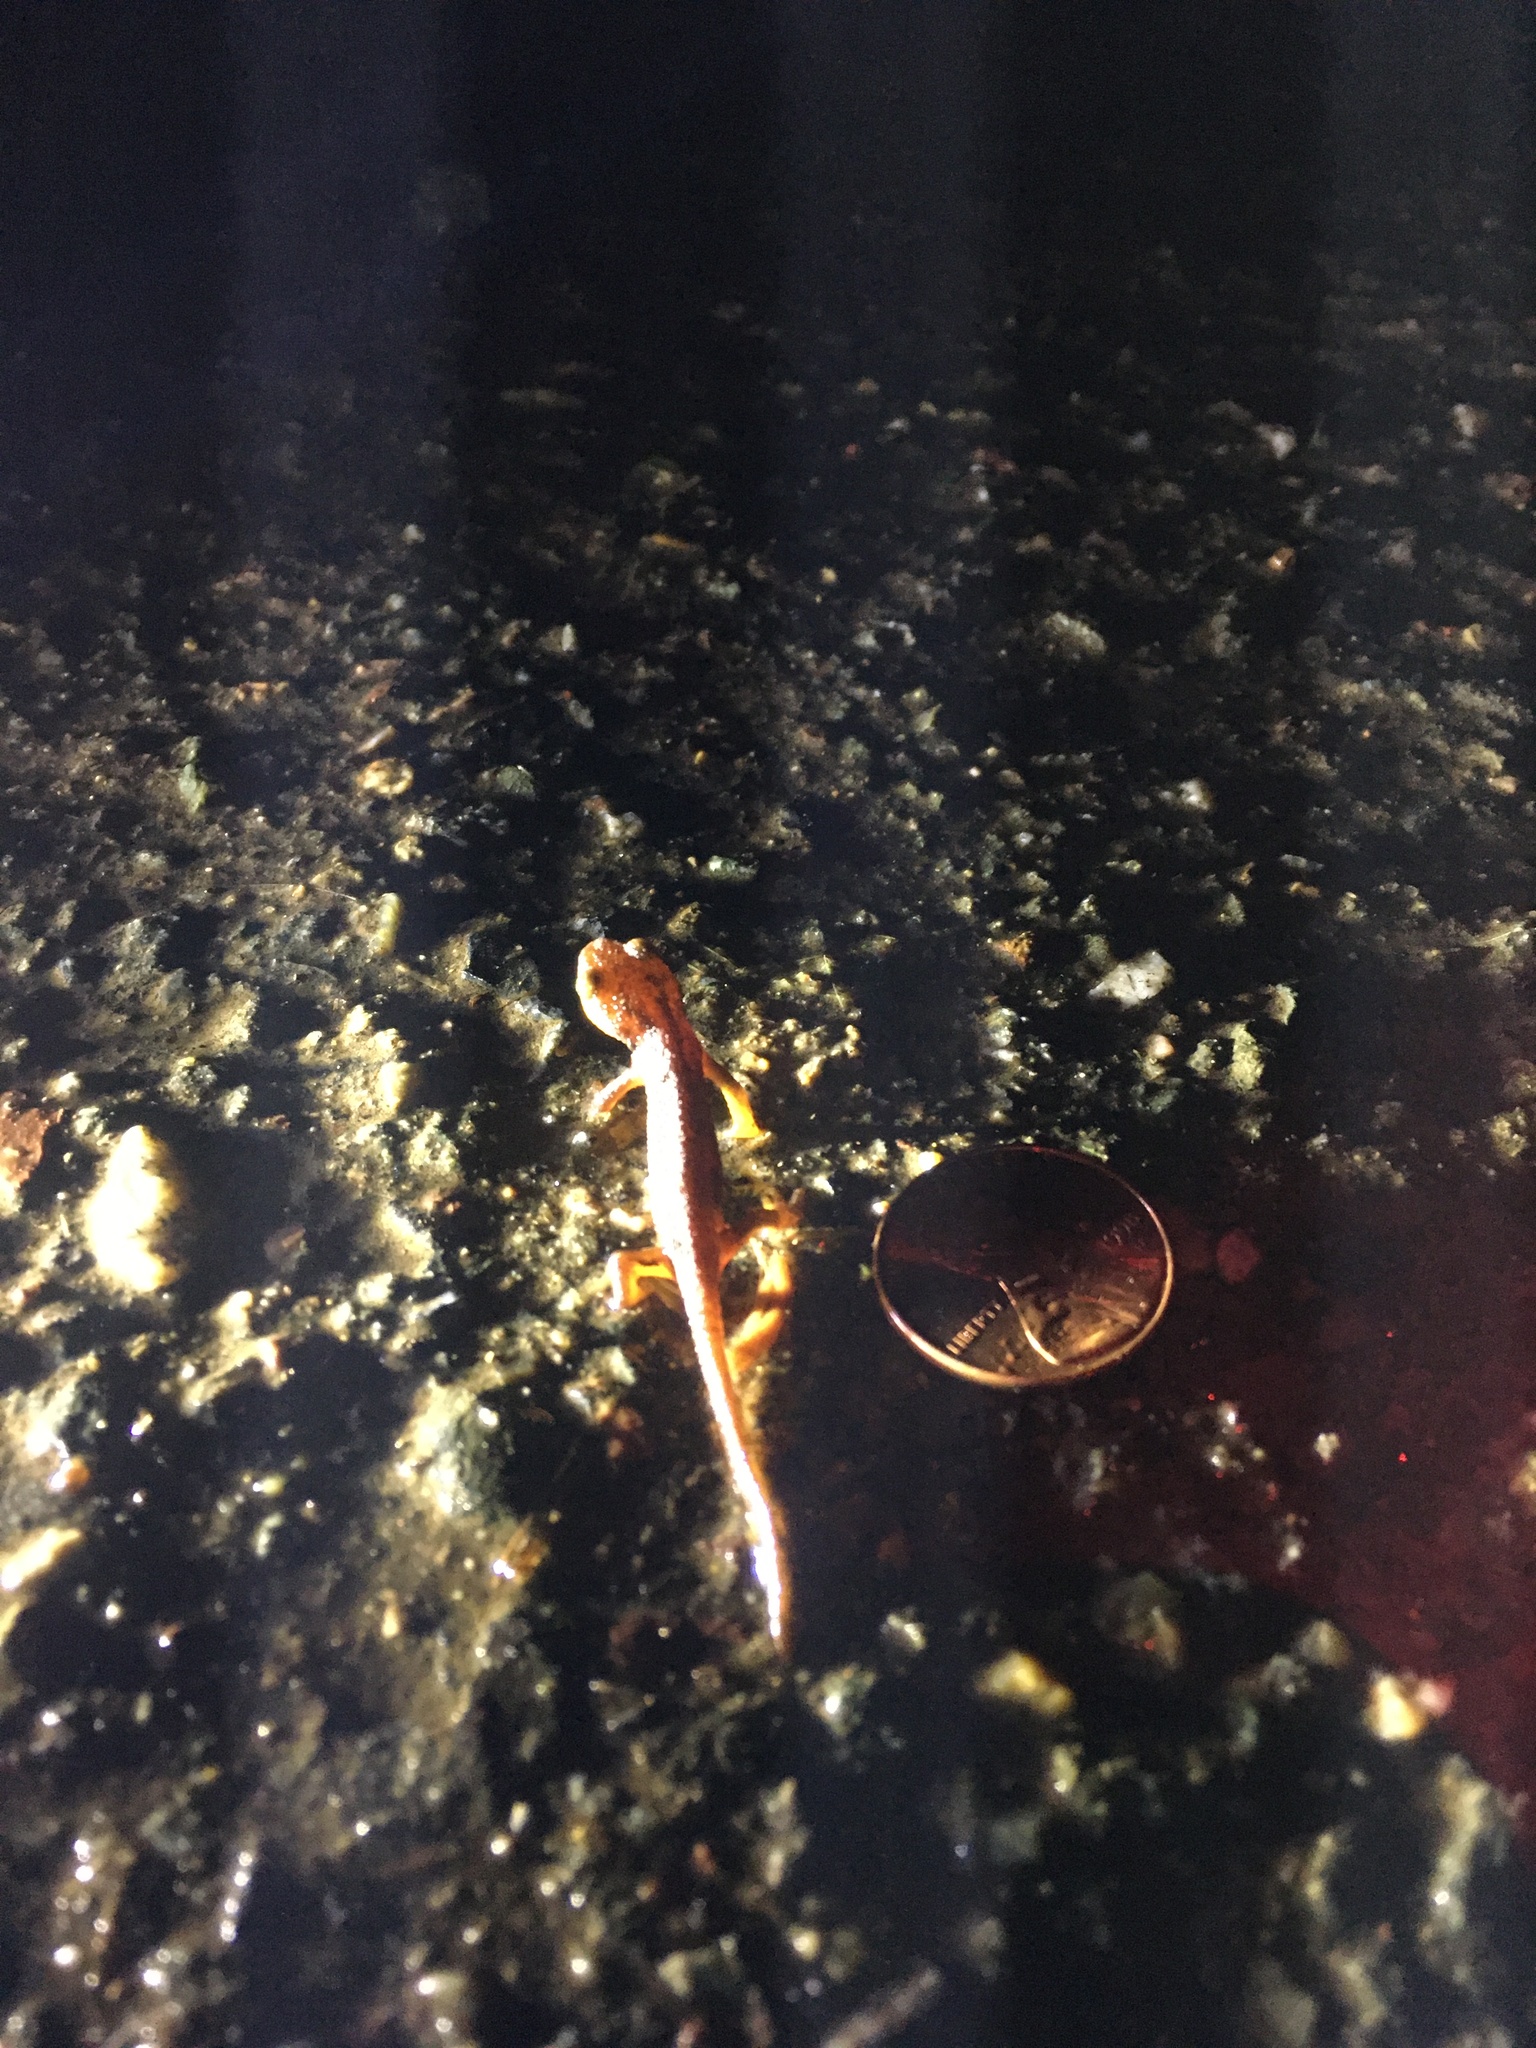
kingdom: Animalia
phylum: Chordata
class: Amphibia
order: Caudata
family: Salamandridae
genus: Taricha
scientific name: Taricha torosa
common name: California newt
